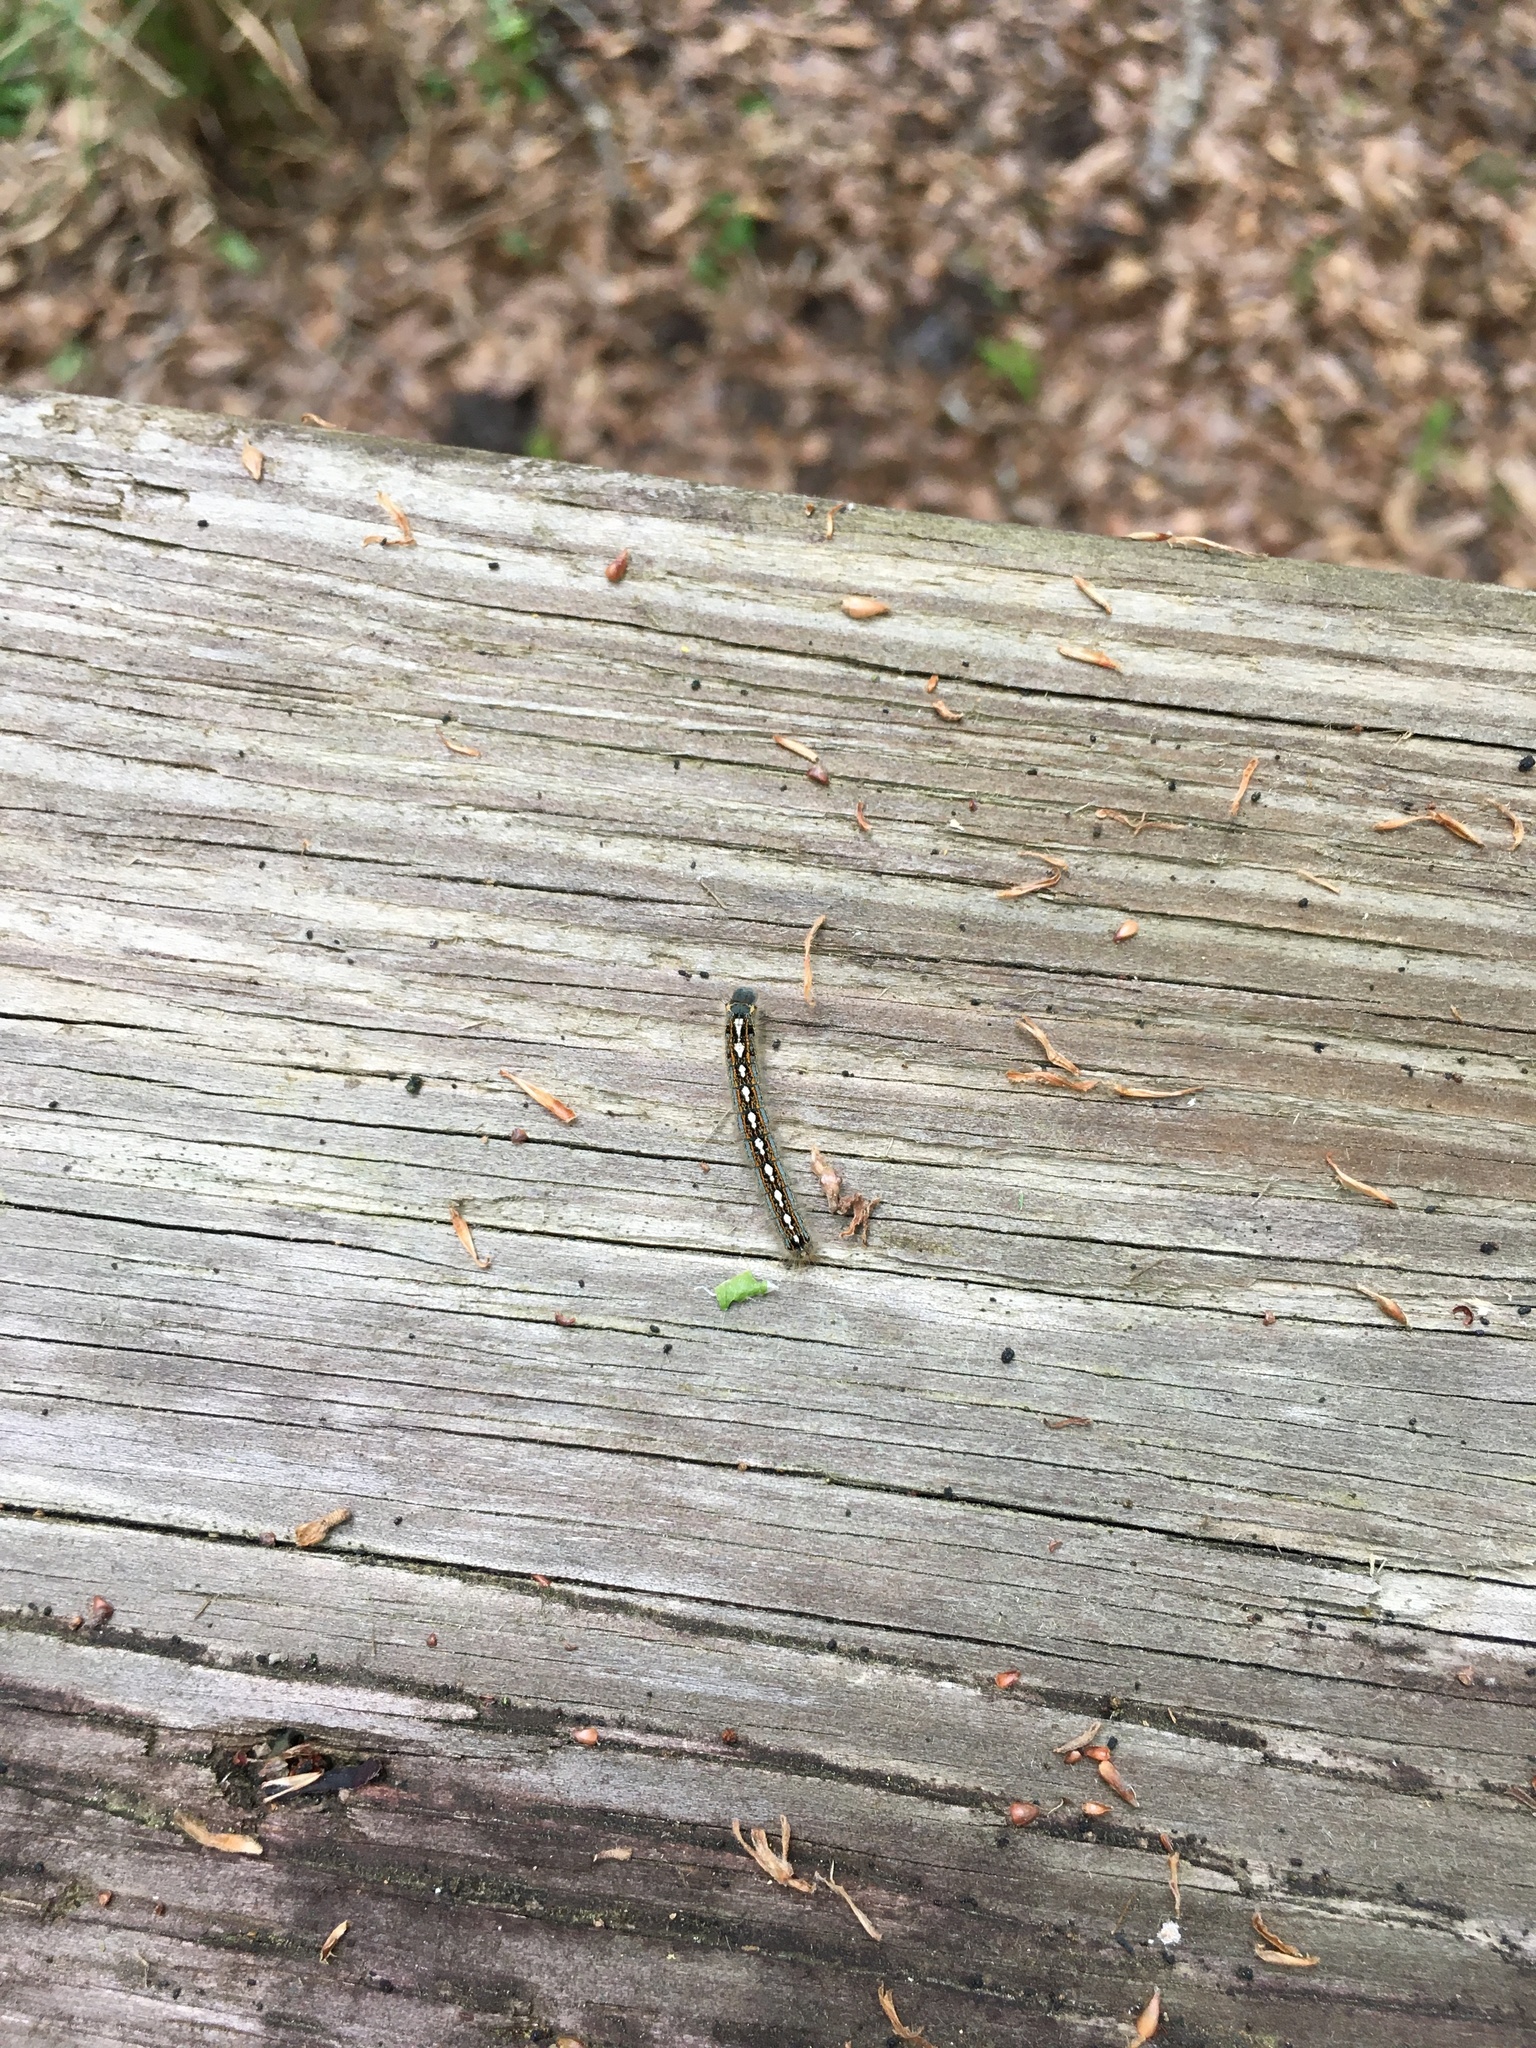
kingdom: Animalia
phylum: Arthropoda
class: Insecta
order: Lepidoptera
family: Lasiocampidae
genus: Malacosoma
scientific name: Malacosoma disstria
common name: Forest tent caterpillar
